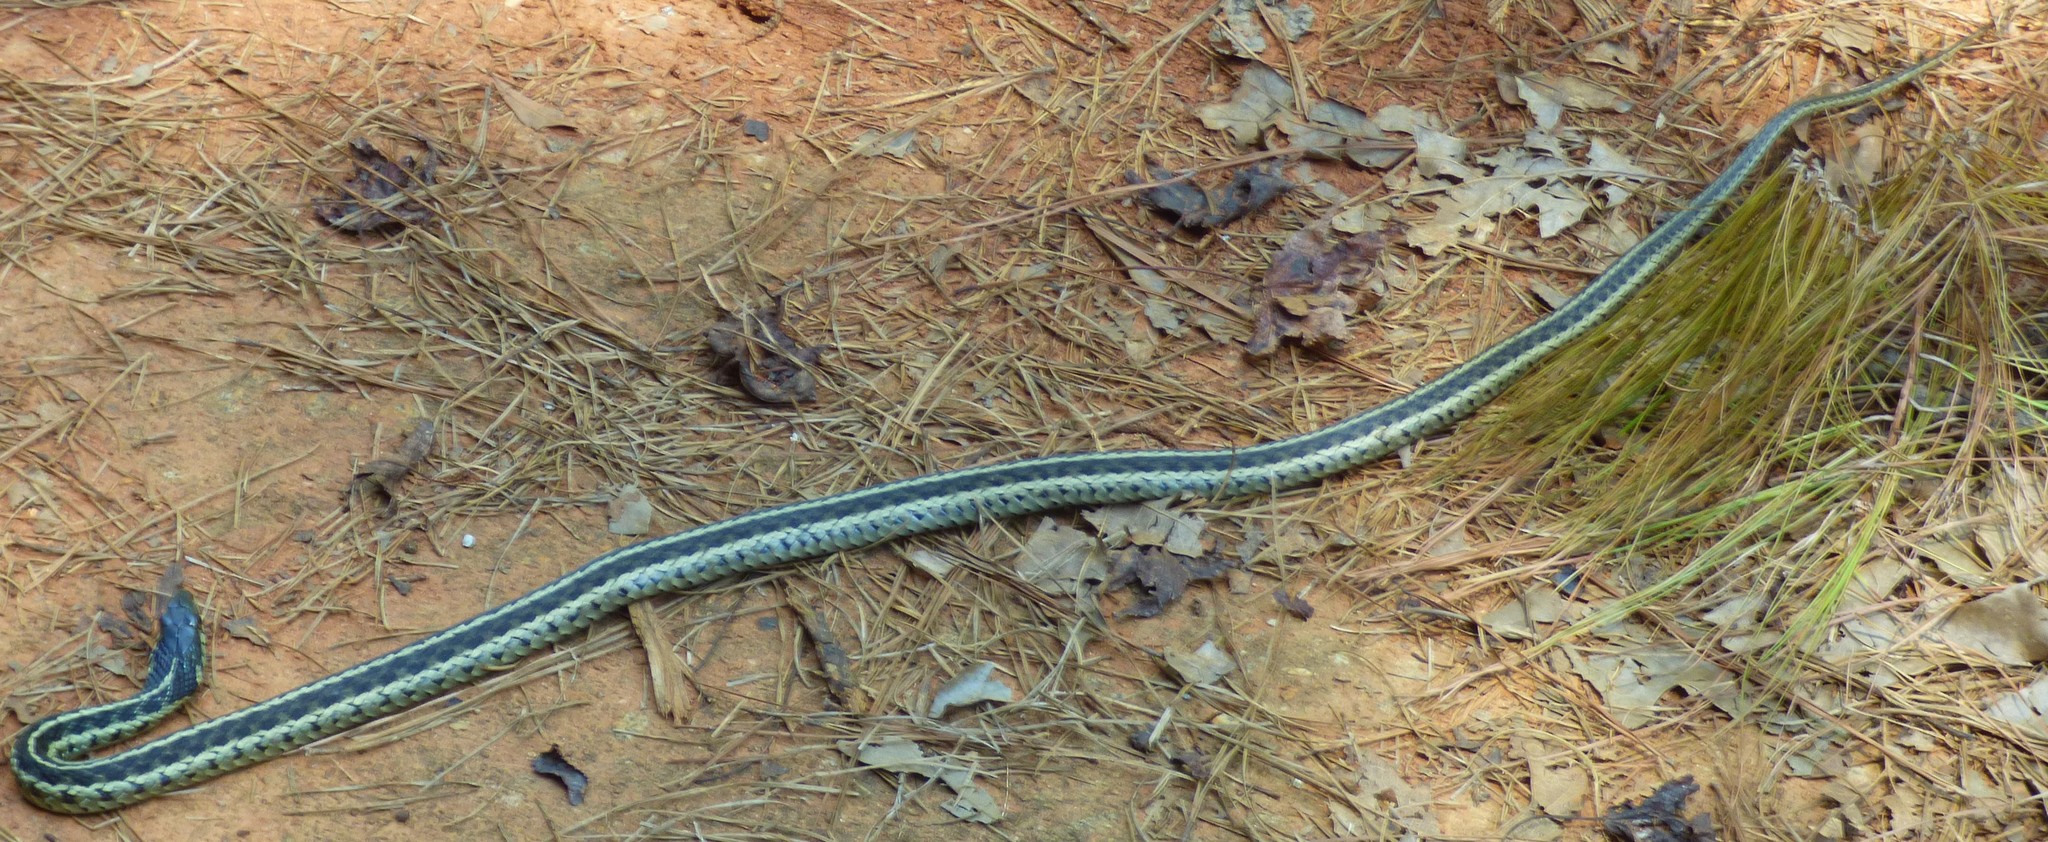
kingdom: Animalia
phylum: Chordata
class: Squamata
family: Colubridae
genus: Thamnophis
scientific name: Thamnophis sirtalis
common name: Common garter snake
